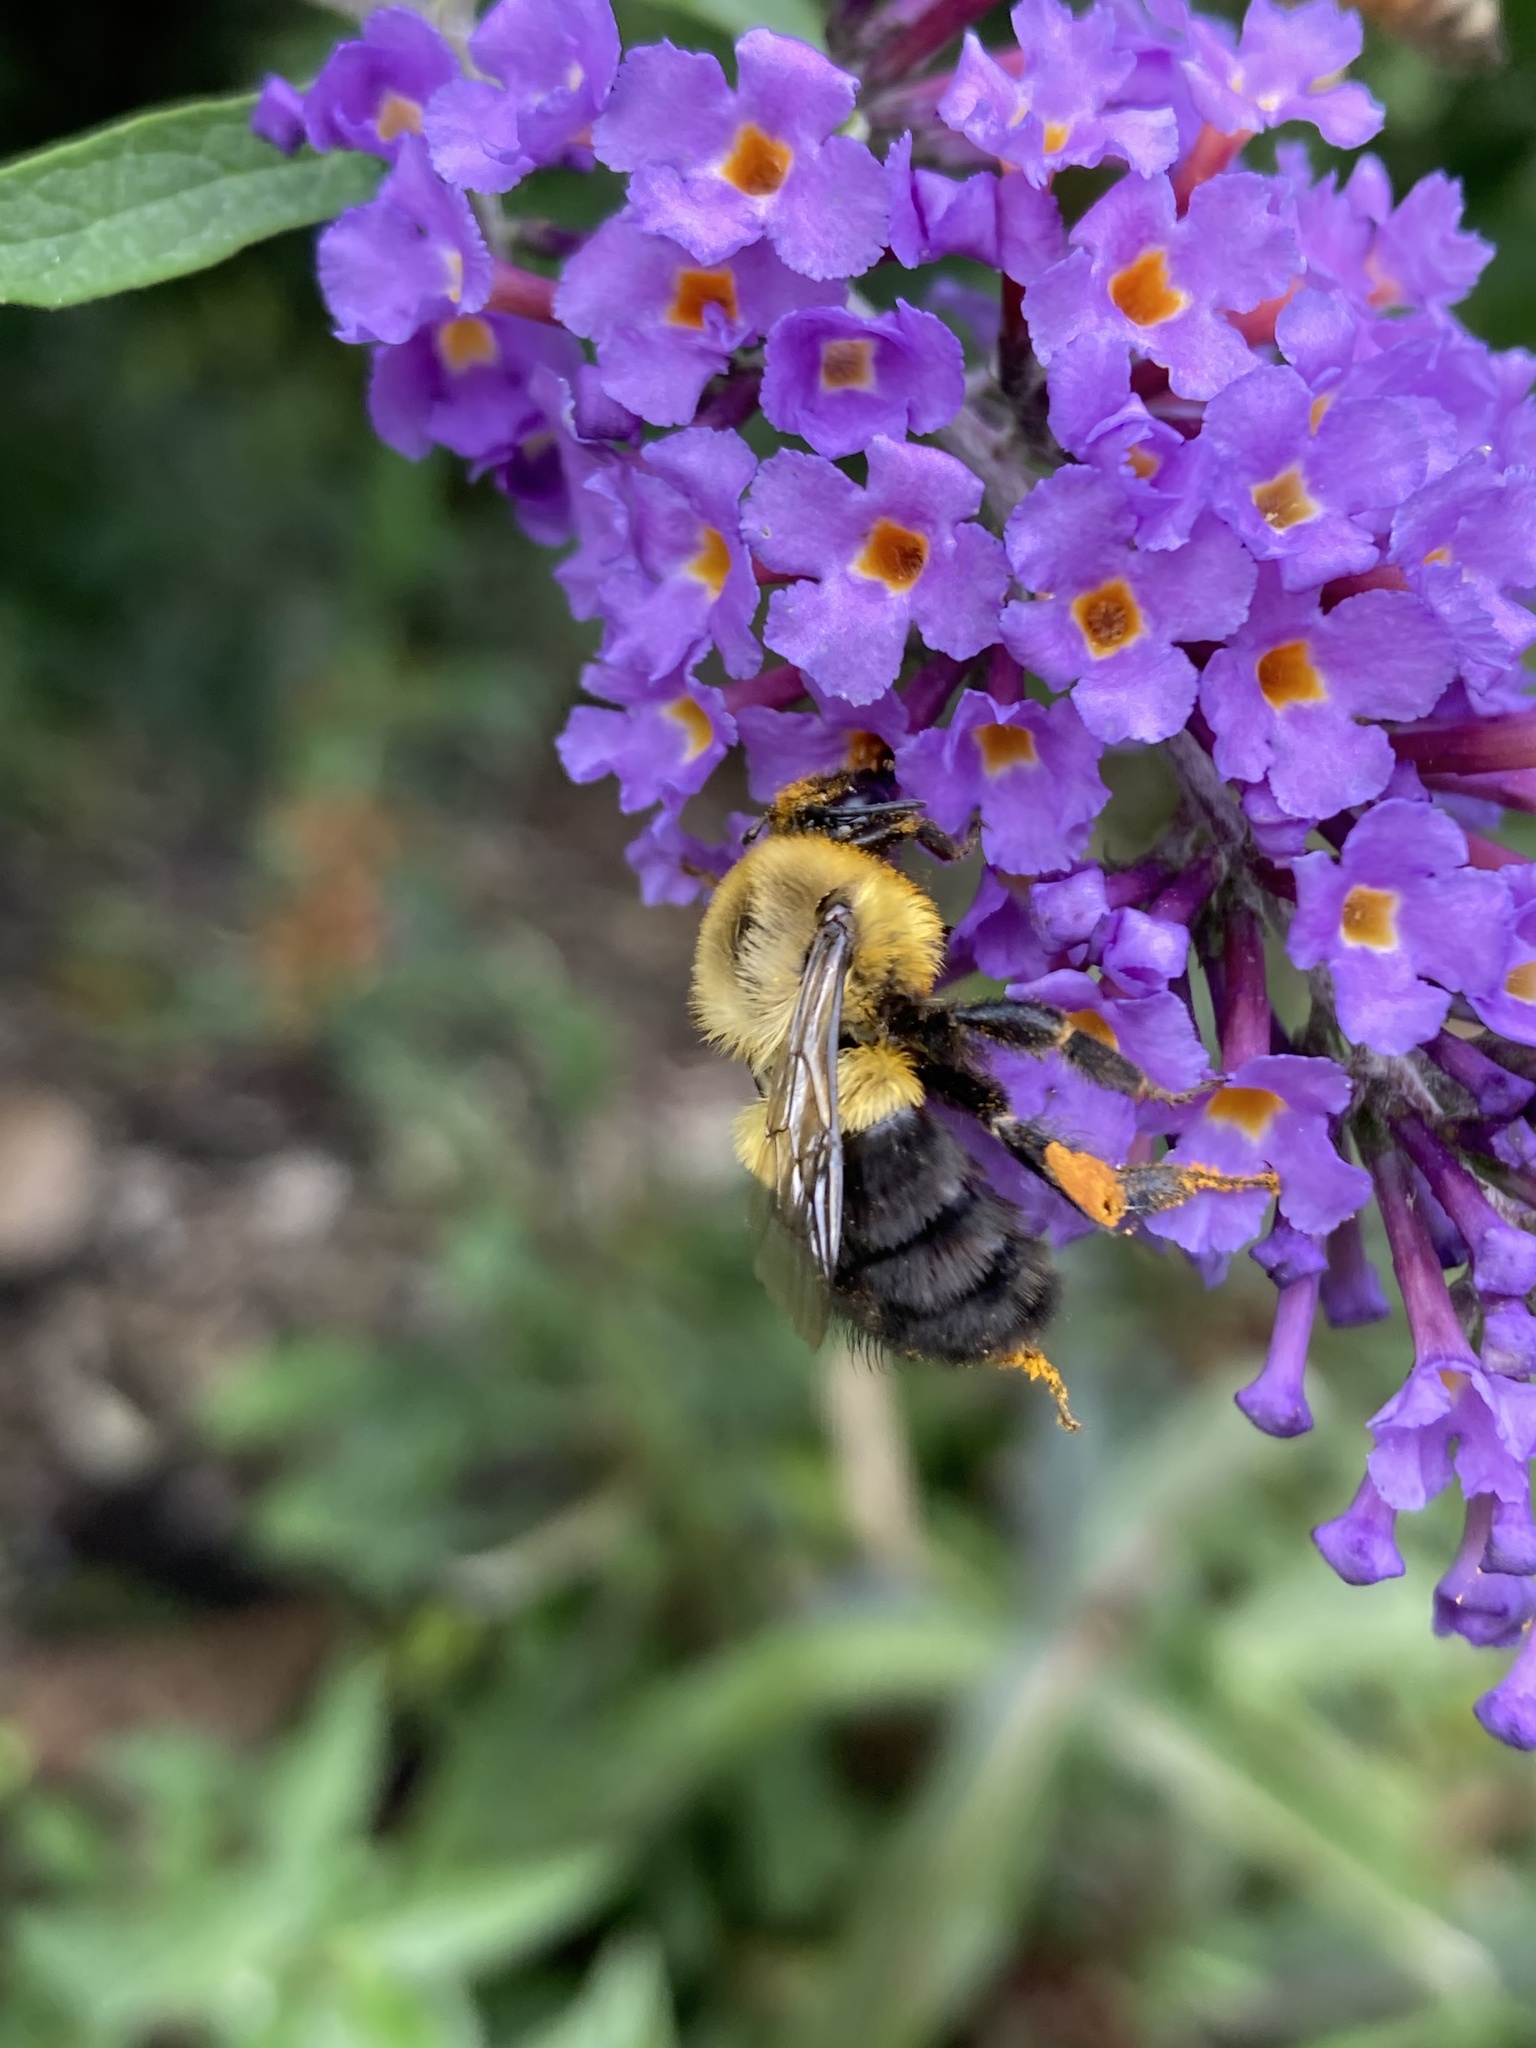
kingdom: Animalia
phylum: Arthropoda
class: Insecta
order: Hymenoptera
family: Apidae
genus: Bombus
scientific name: Bombus impatiens
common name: Common eastern bumble bee
